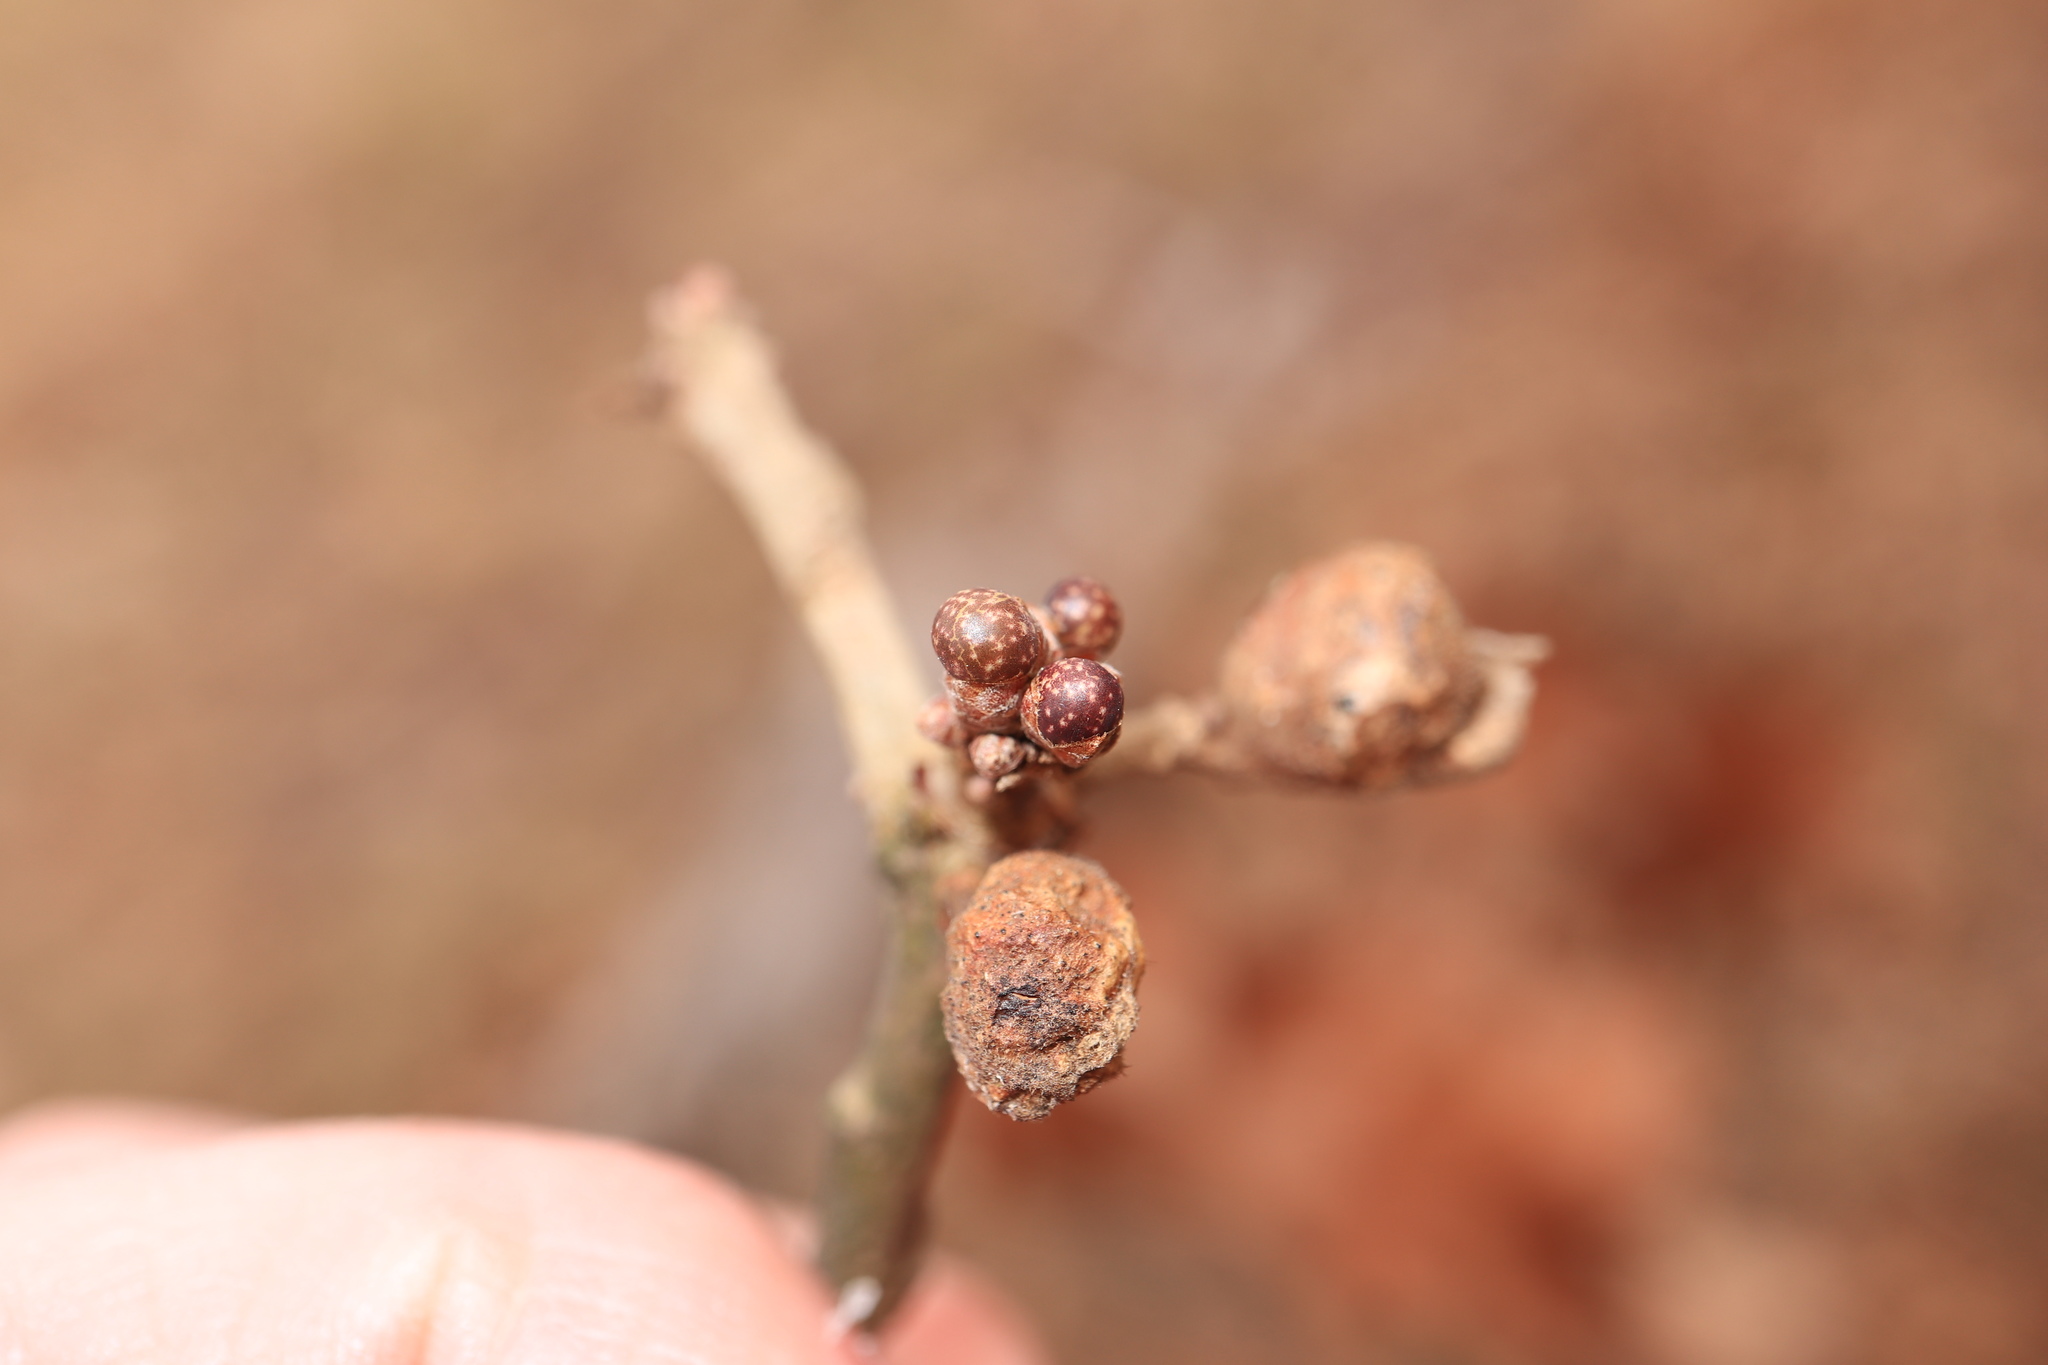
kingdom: Animalia
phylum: Arthropoda
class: Insecta
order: Hymenoptera
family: Cynipidae
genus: Neuroterus
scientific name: Neuroterus
